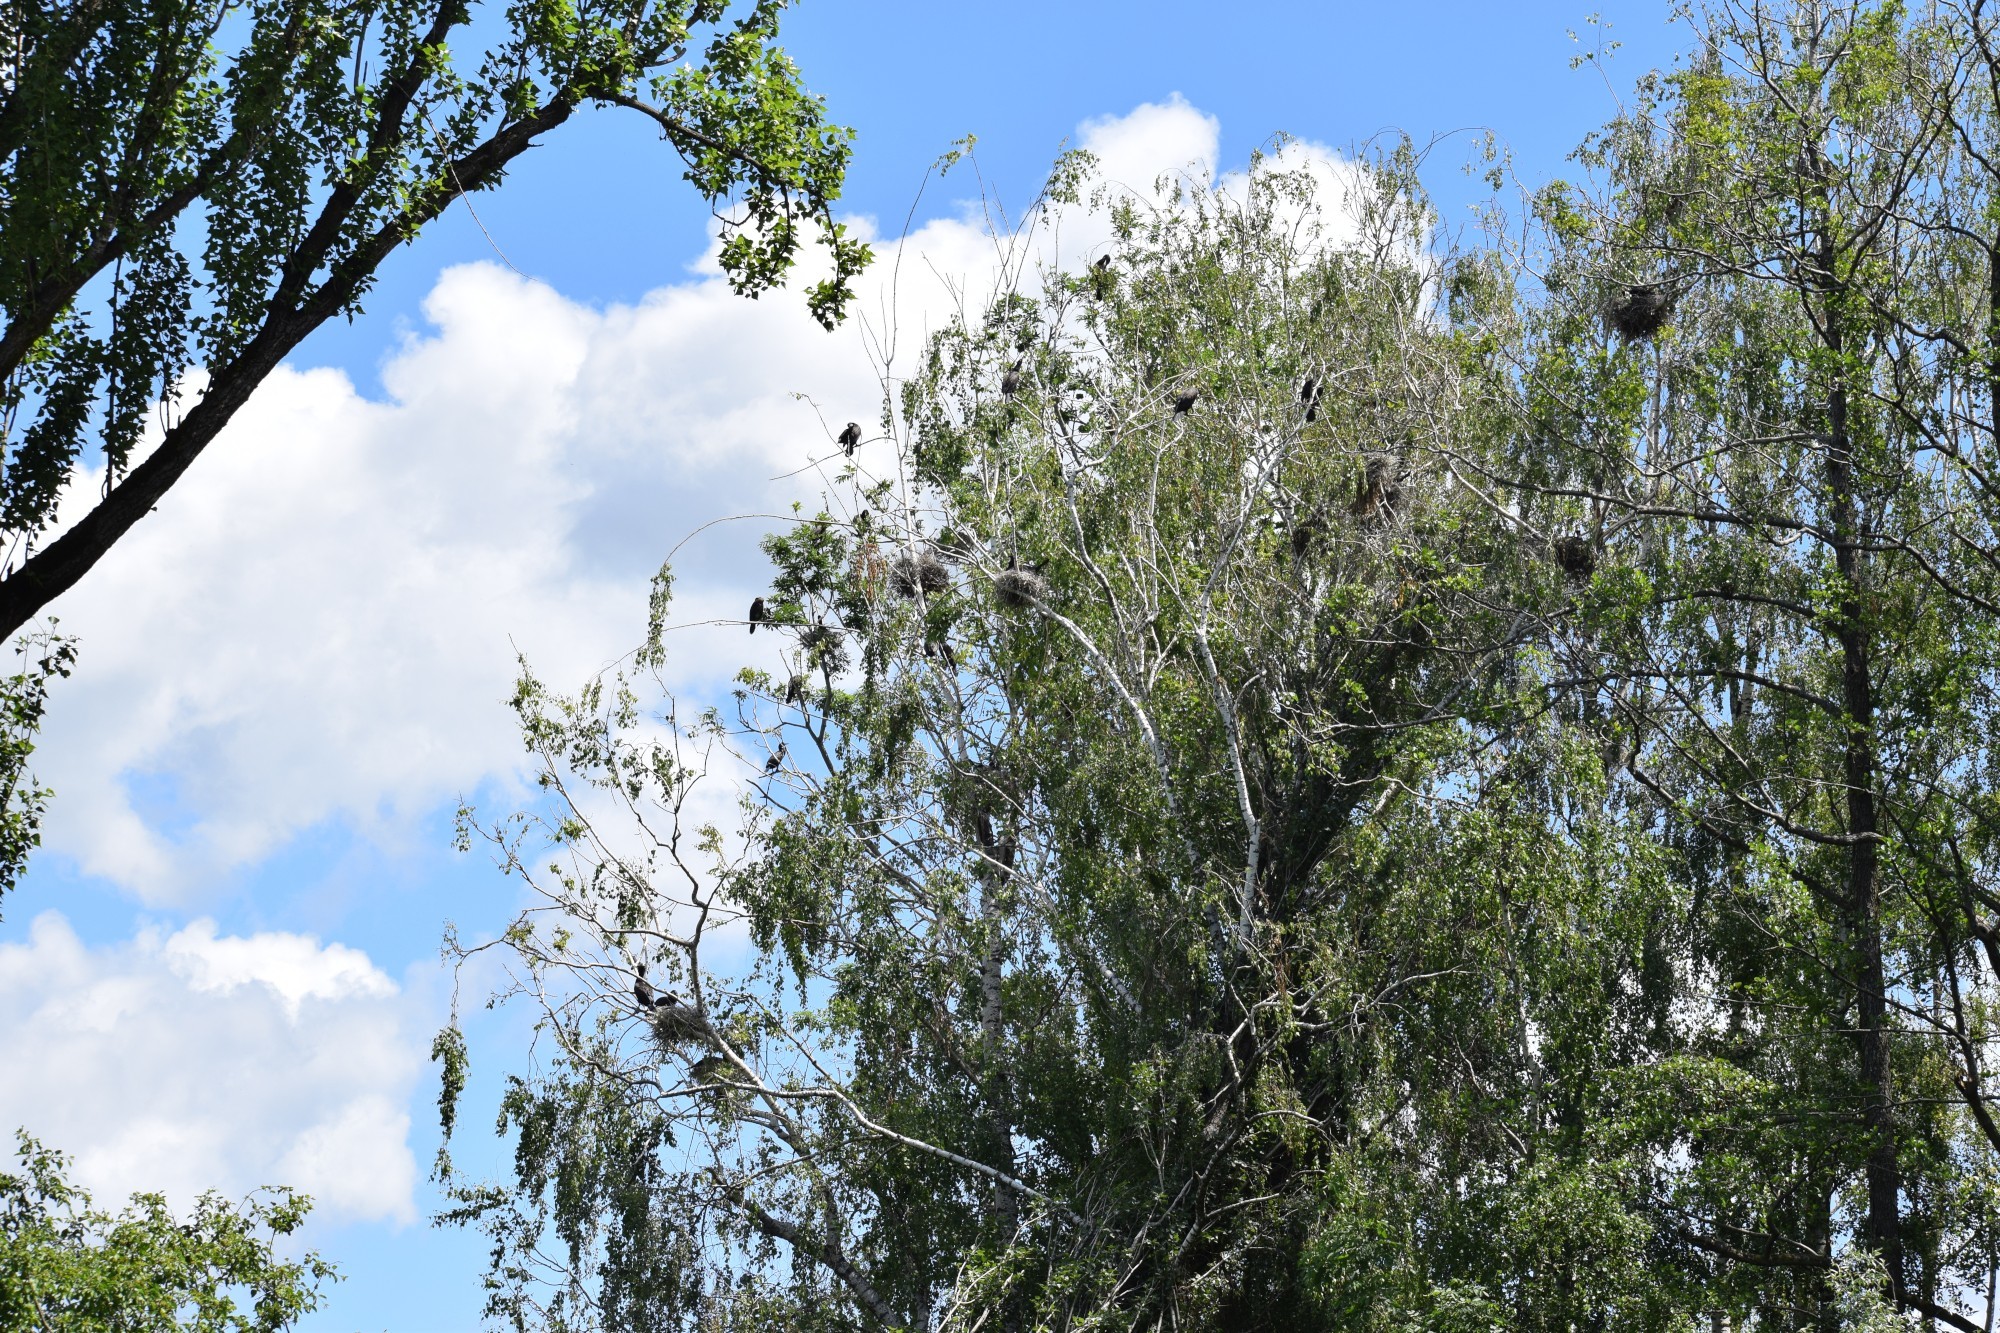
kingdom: Animalia
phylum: Chordata
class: Aves
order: Suliformes
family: Phalacrocoracidae
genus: Phalacrocorax
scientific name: Phalacrocorax carbo
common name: Great cormorant
